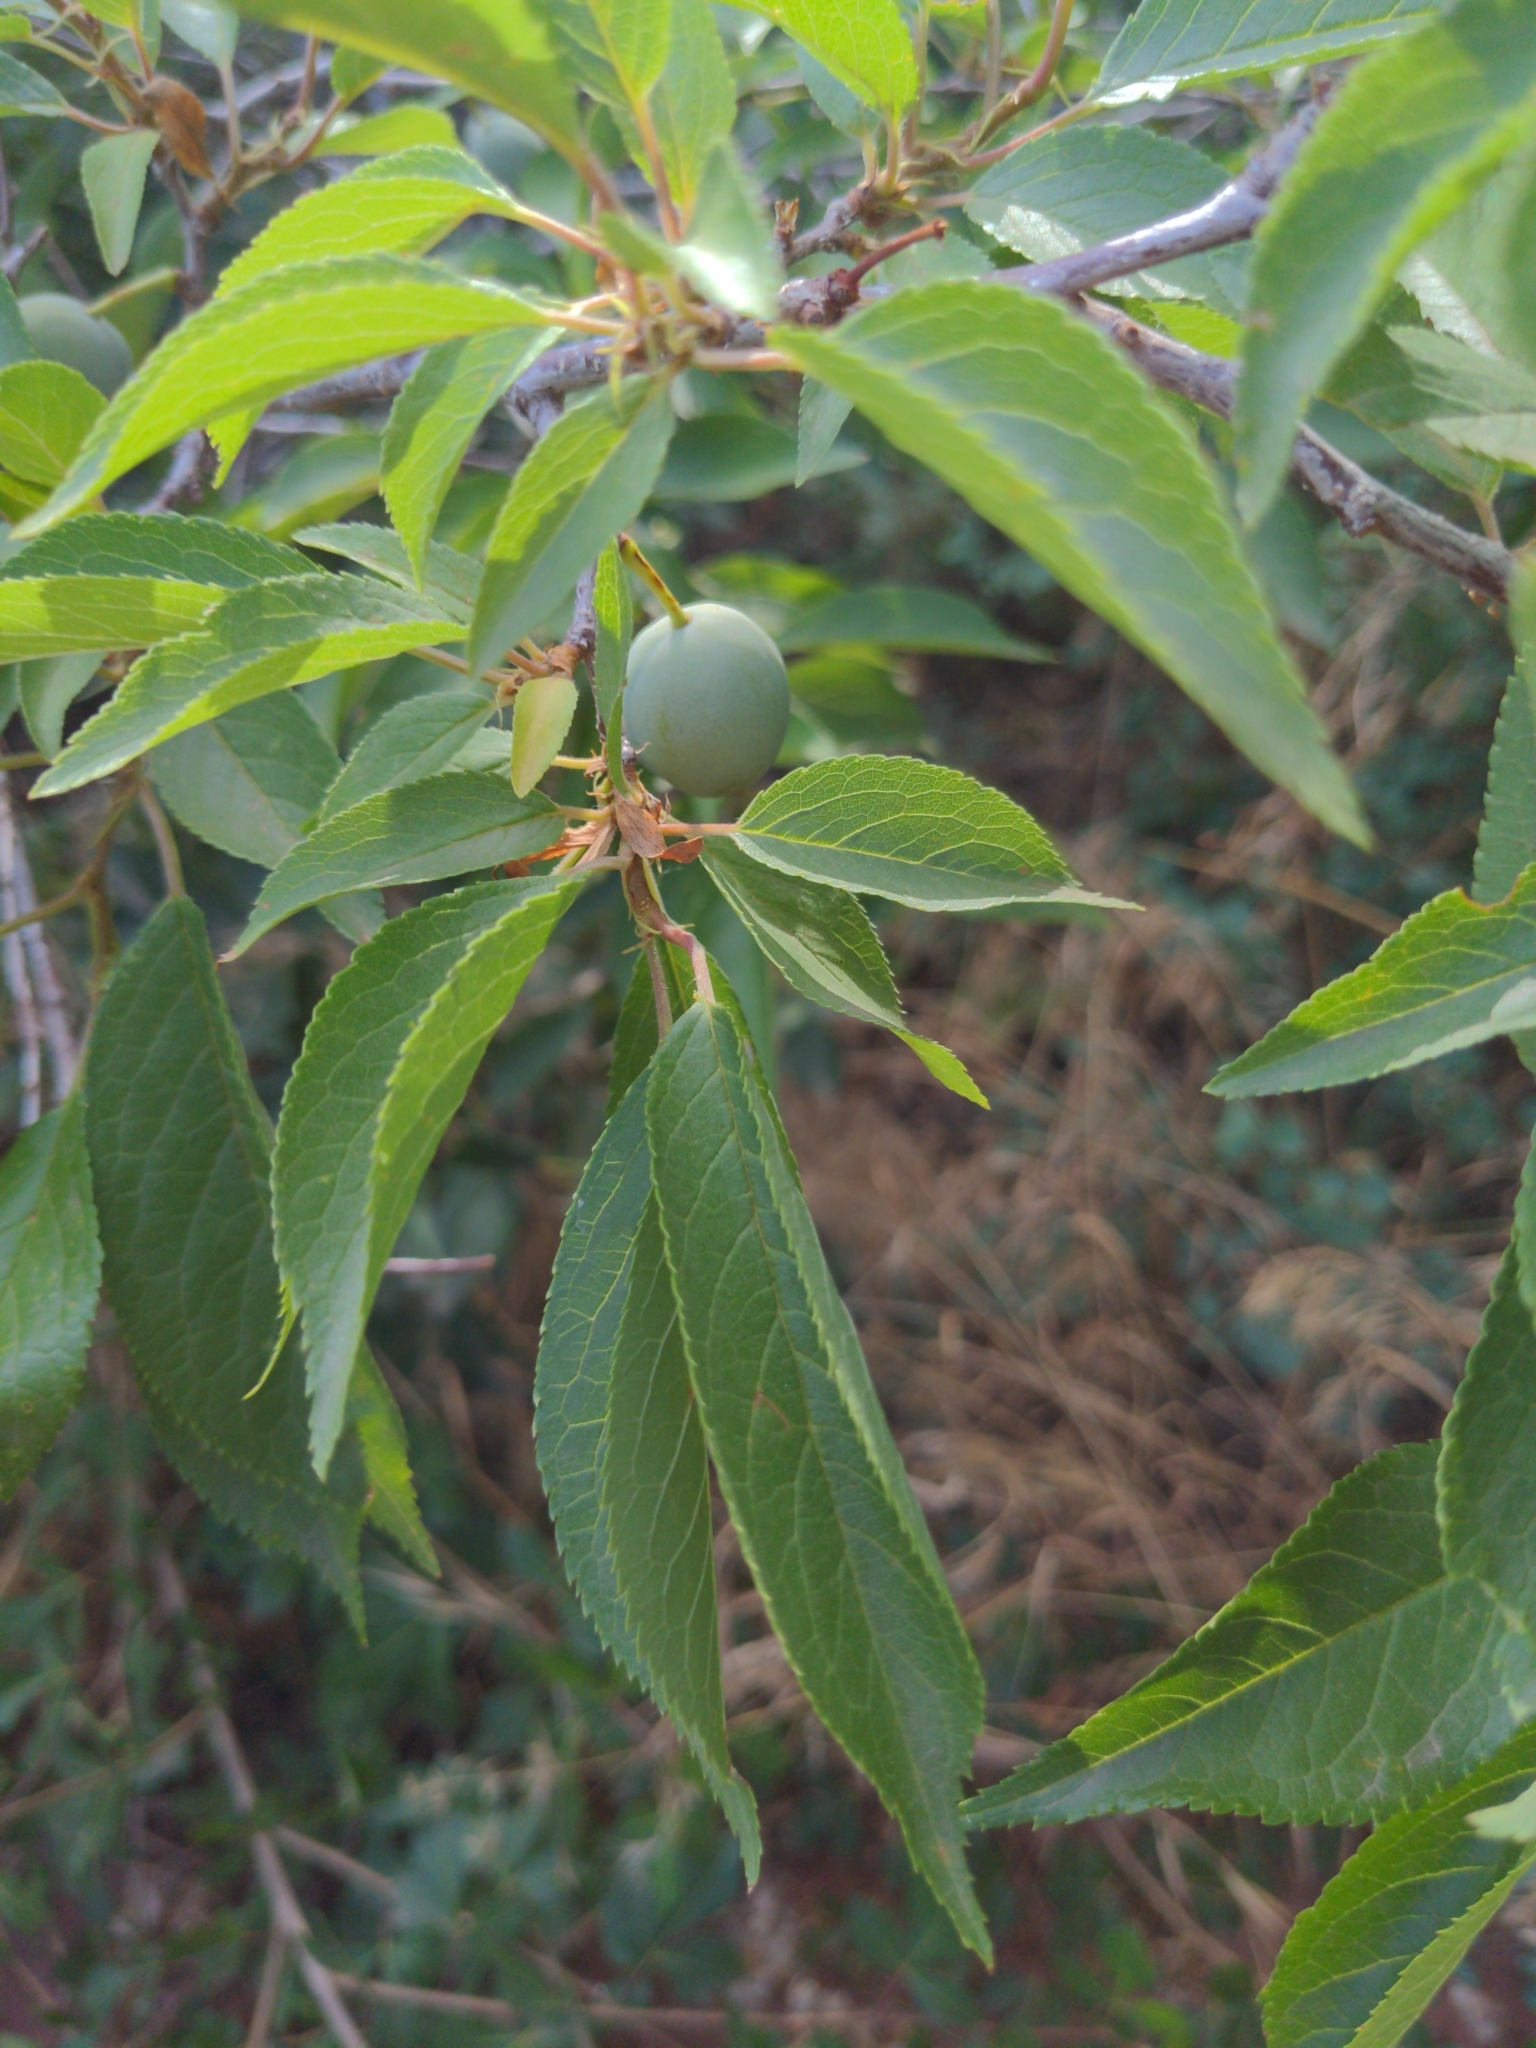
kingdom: Plantae
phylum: Tracheophyta
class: Magnoliopsida
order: Rosales
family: Rosaceae
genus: Prunus
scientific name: Prunus americana
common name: American plum
